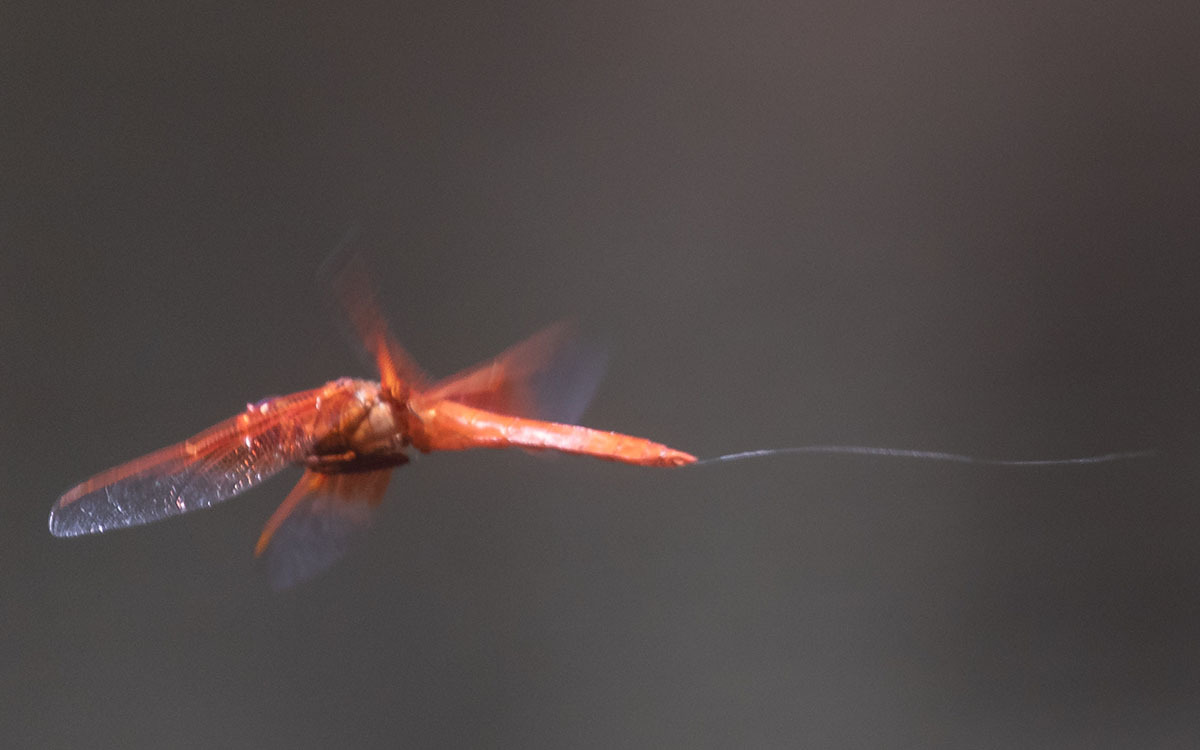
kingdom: Animalia
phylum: Arthropoda
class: Insecta
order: Odonata
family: Libellulidae
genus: Libellula
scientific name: Libellula saturata
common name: Flame skimmer
